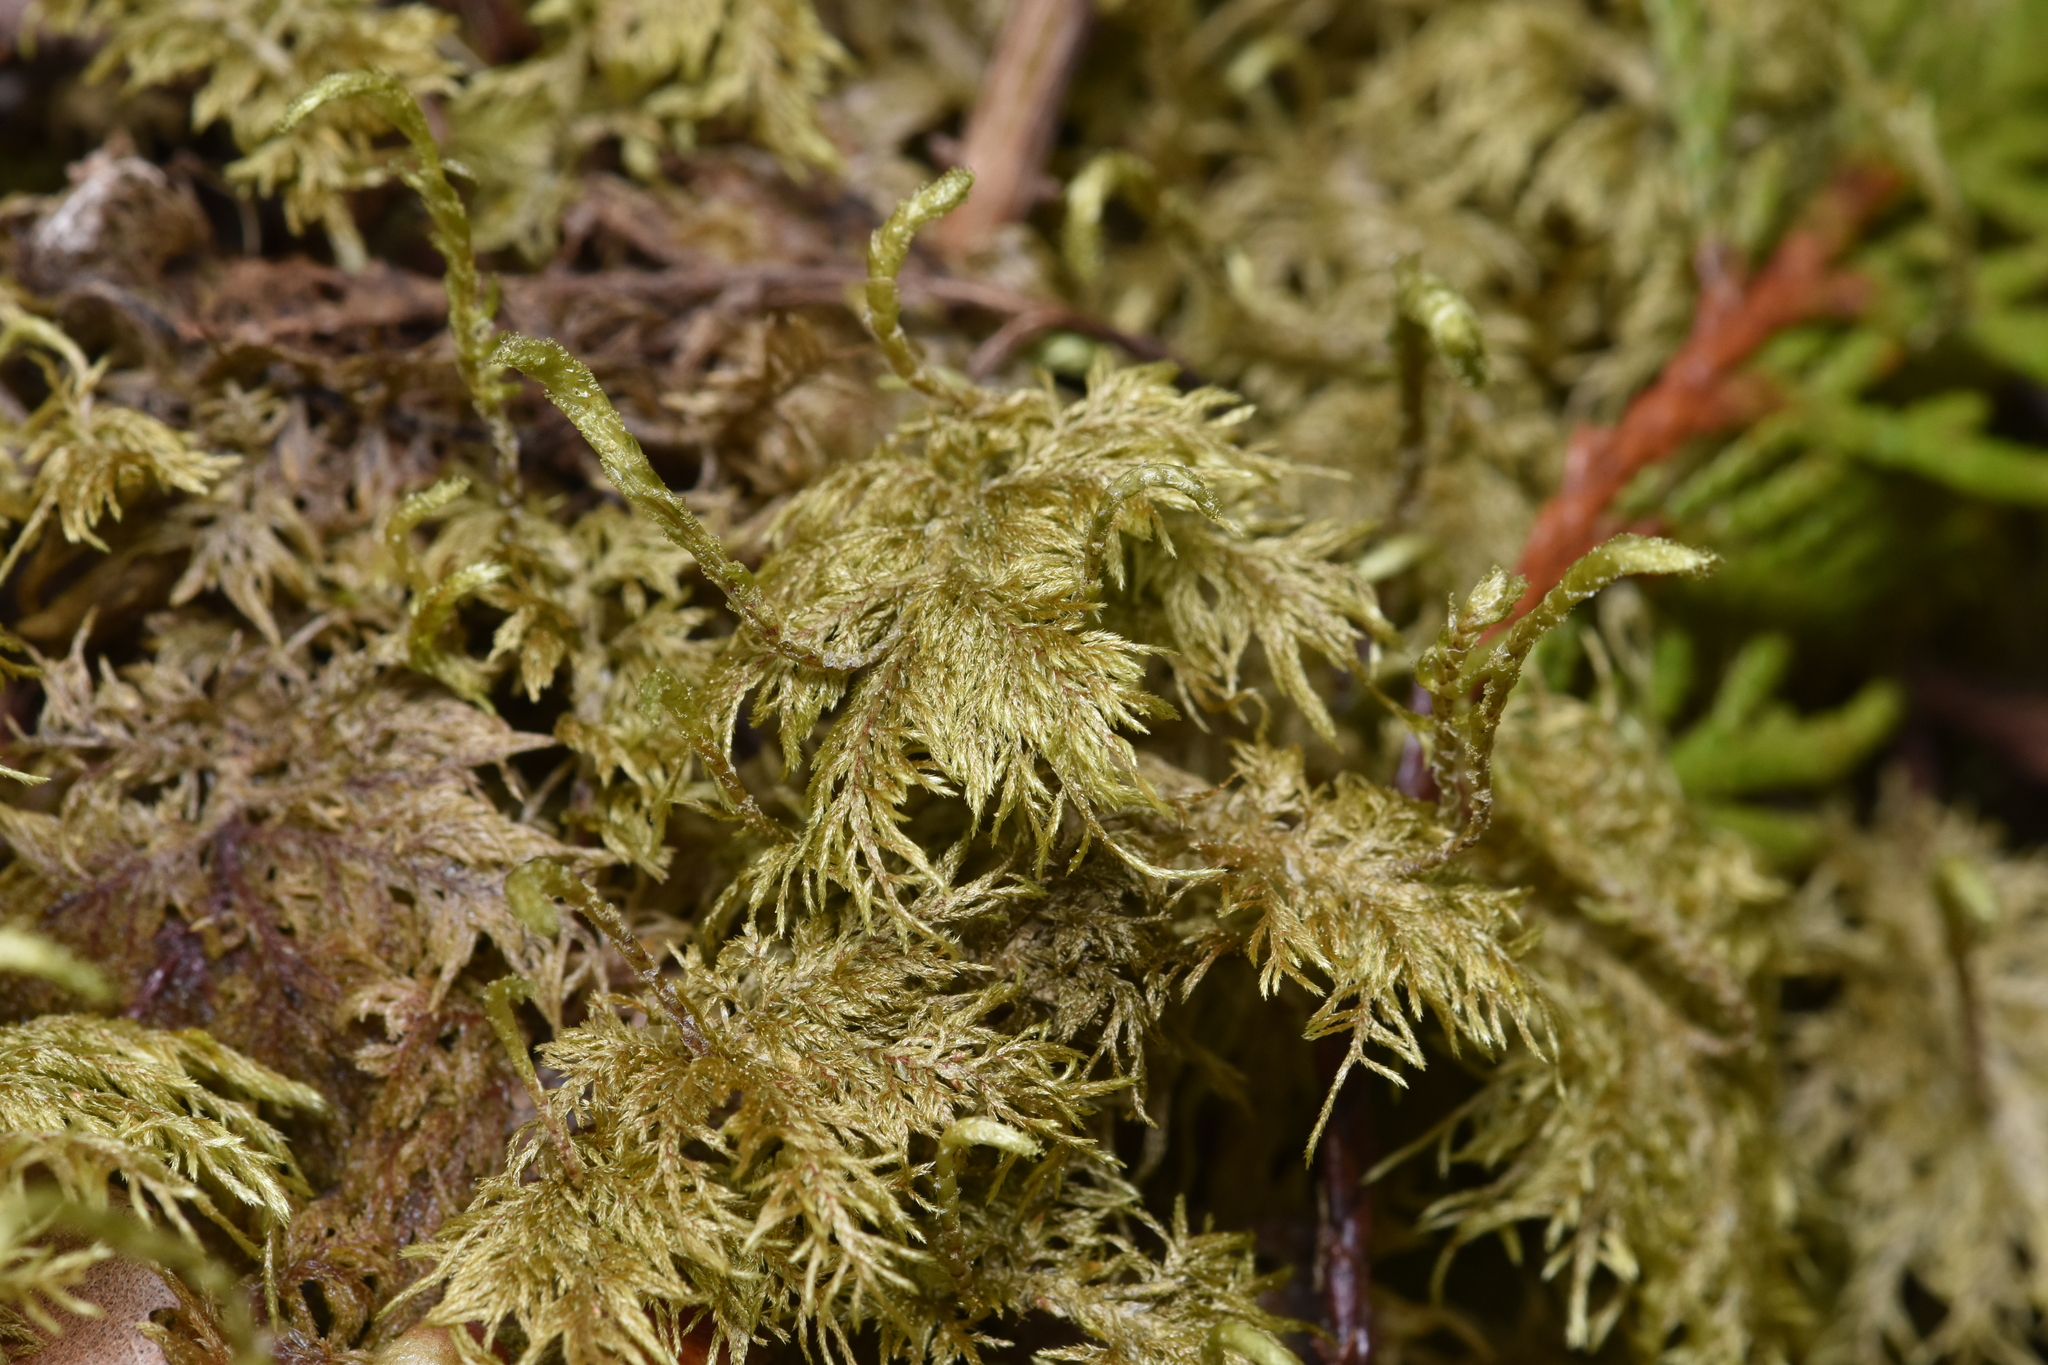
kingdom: Plantae
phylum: Bryophyta
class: Bryopsida
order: Hypnales
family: Hylocomiaceae
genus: Hylocomium
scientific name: Hylocomium splendens
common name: Stairstep moss
